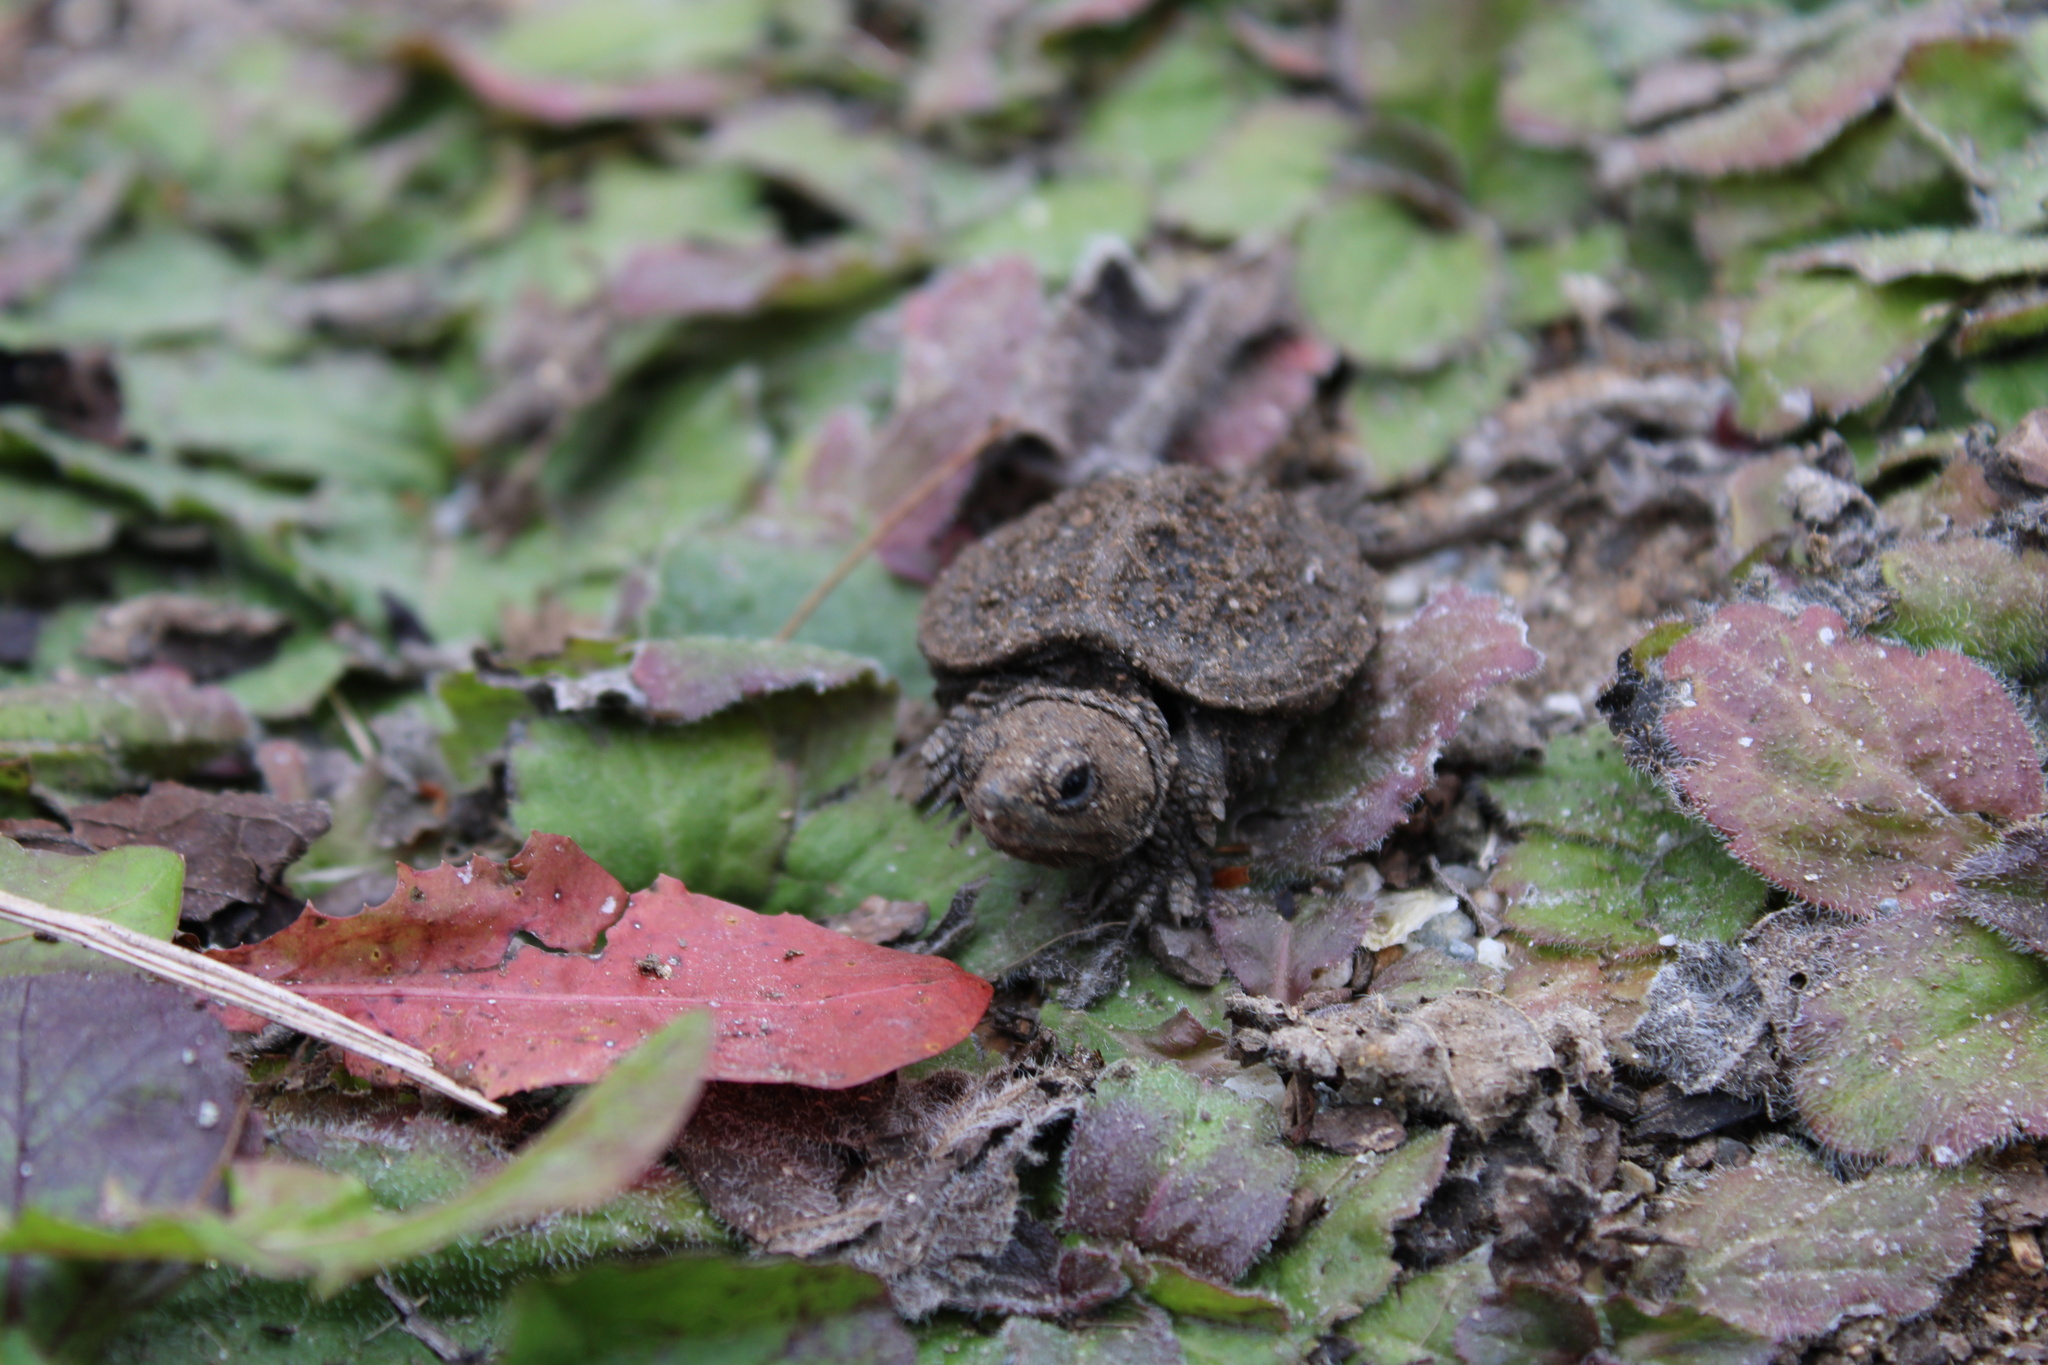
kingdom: Animalia
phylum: Chordata
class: Testudines
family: Chelydridae
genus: Chelydra
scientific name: Chelydra serpentina
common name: Common snapping turtle
